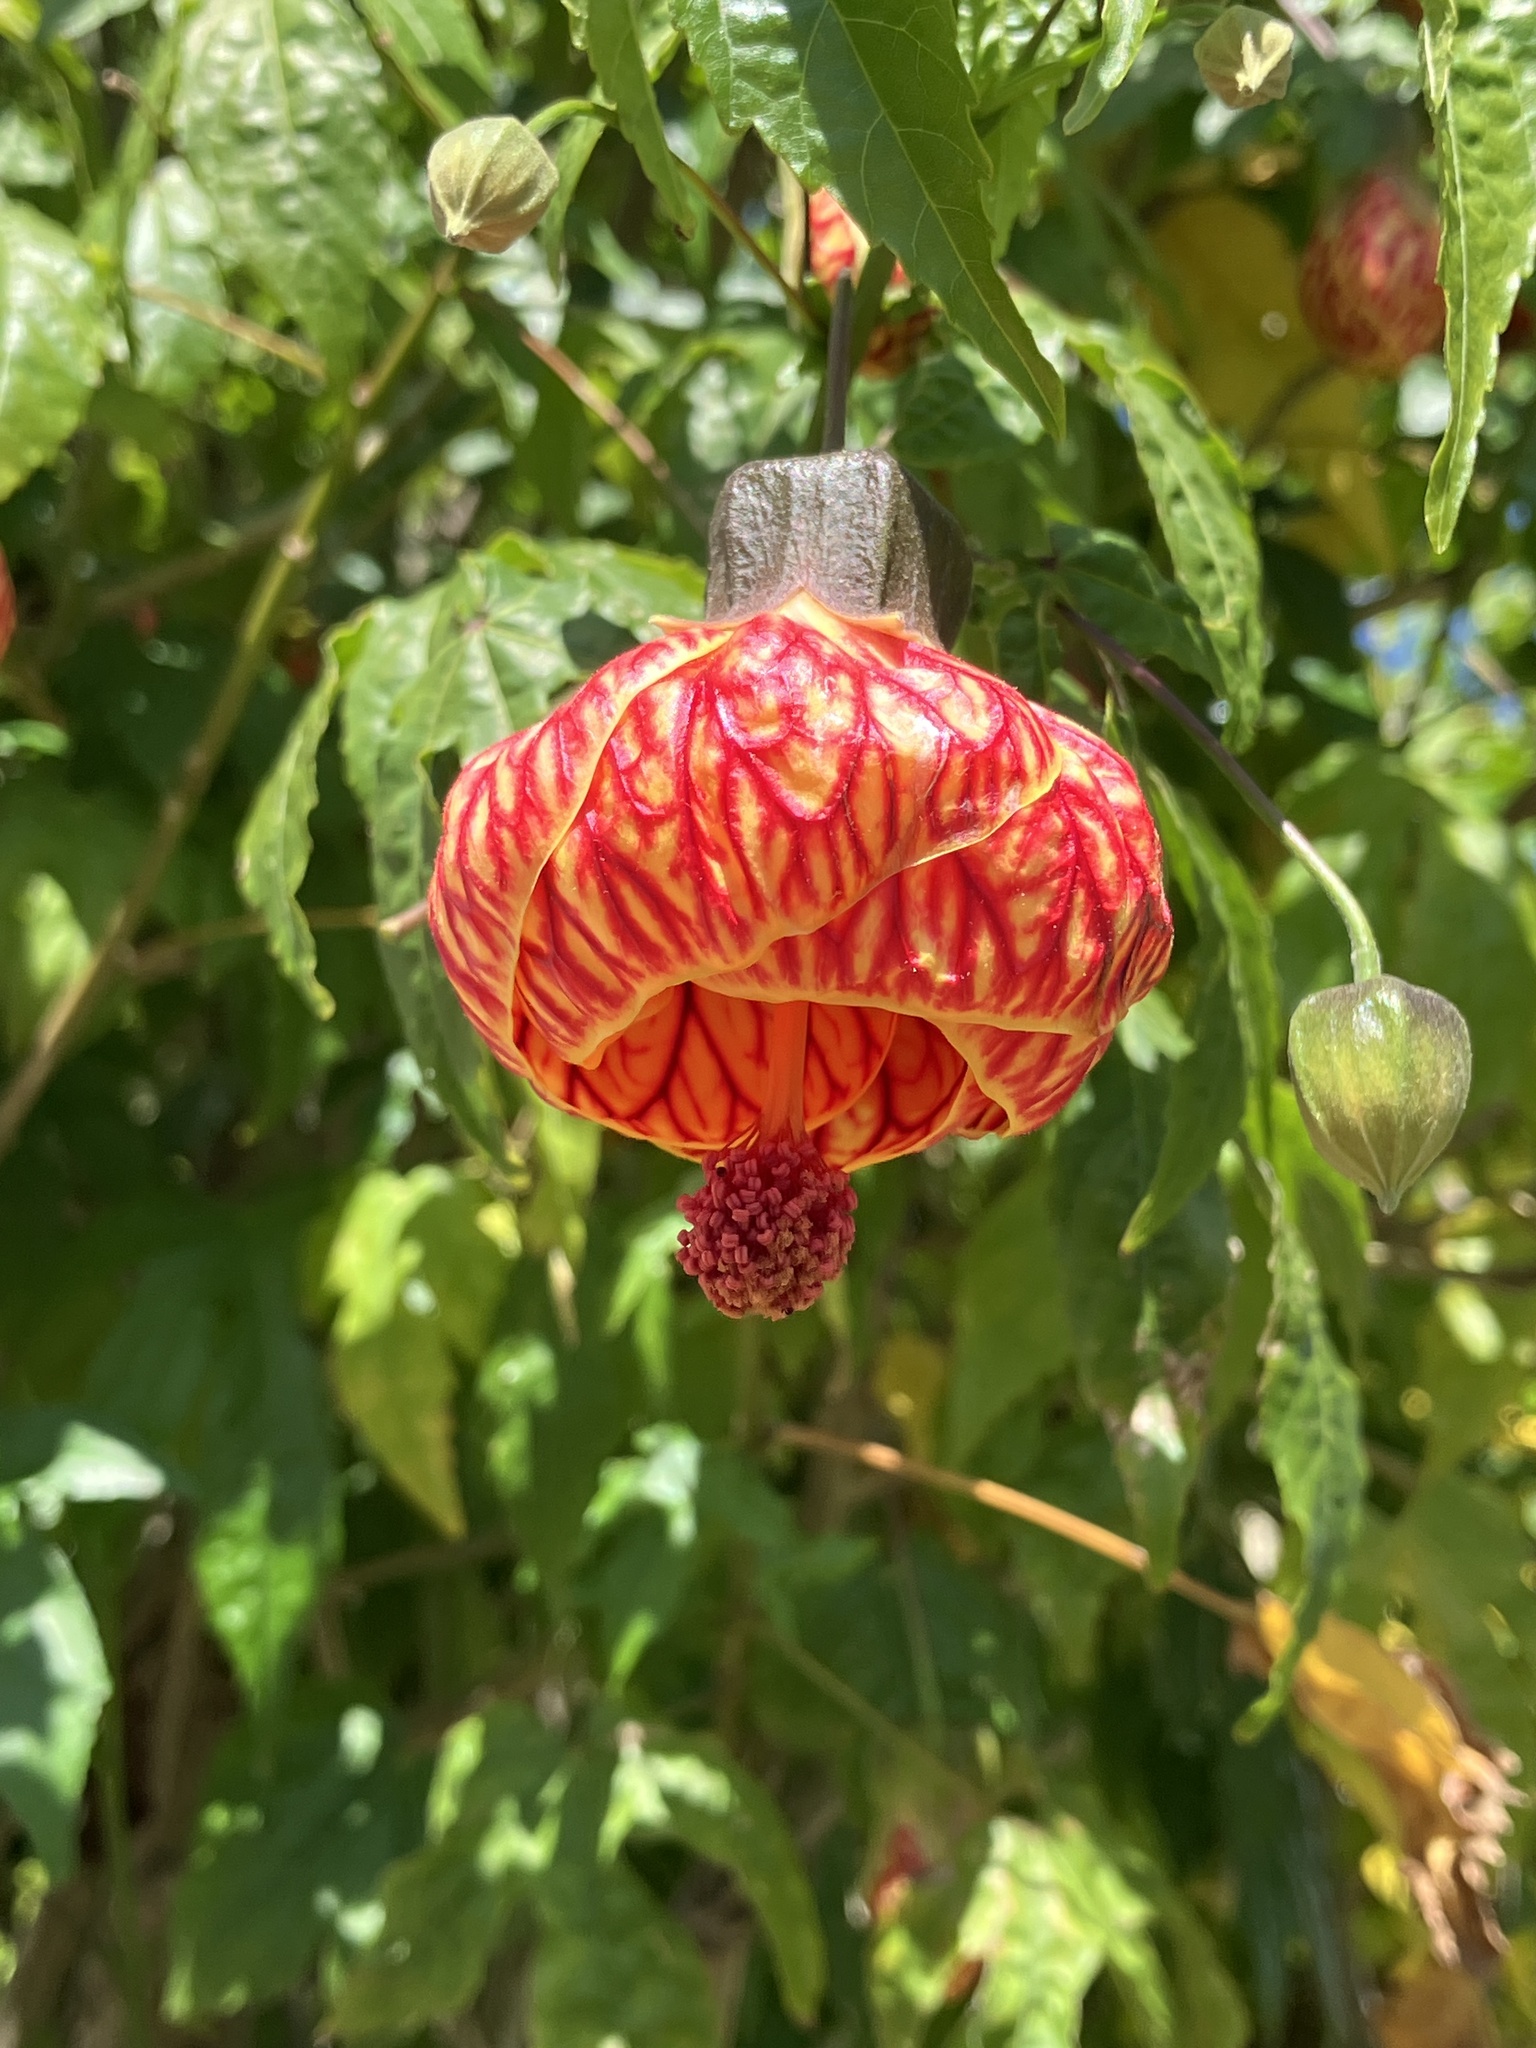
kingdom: Plantae
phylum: Tracheophyta
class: Magnoliopsida
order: Malvales
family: Malvaceae
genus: Callianthe
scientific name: Callianthe picta
